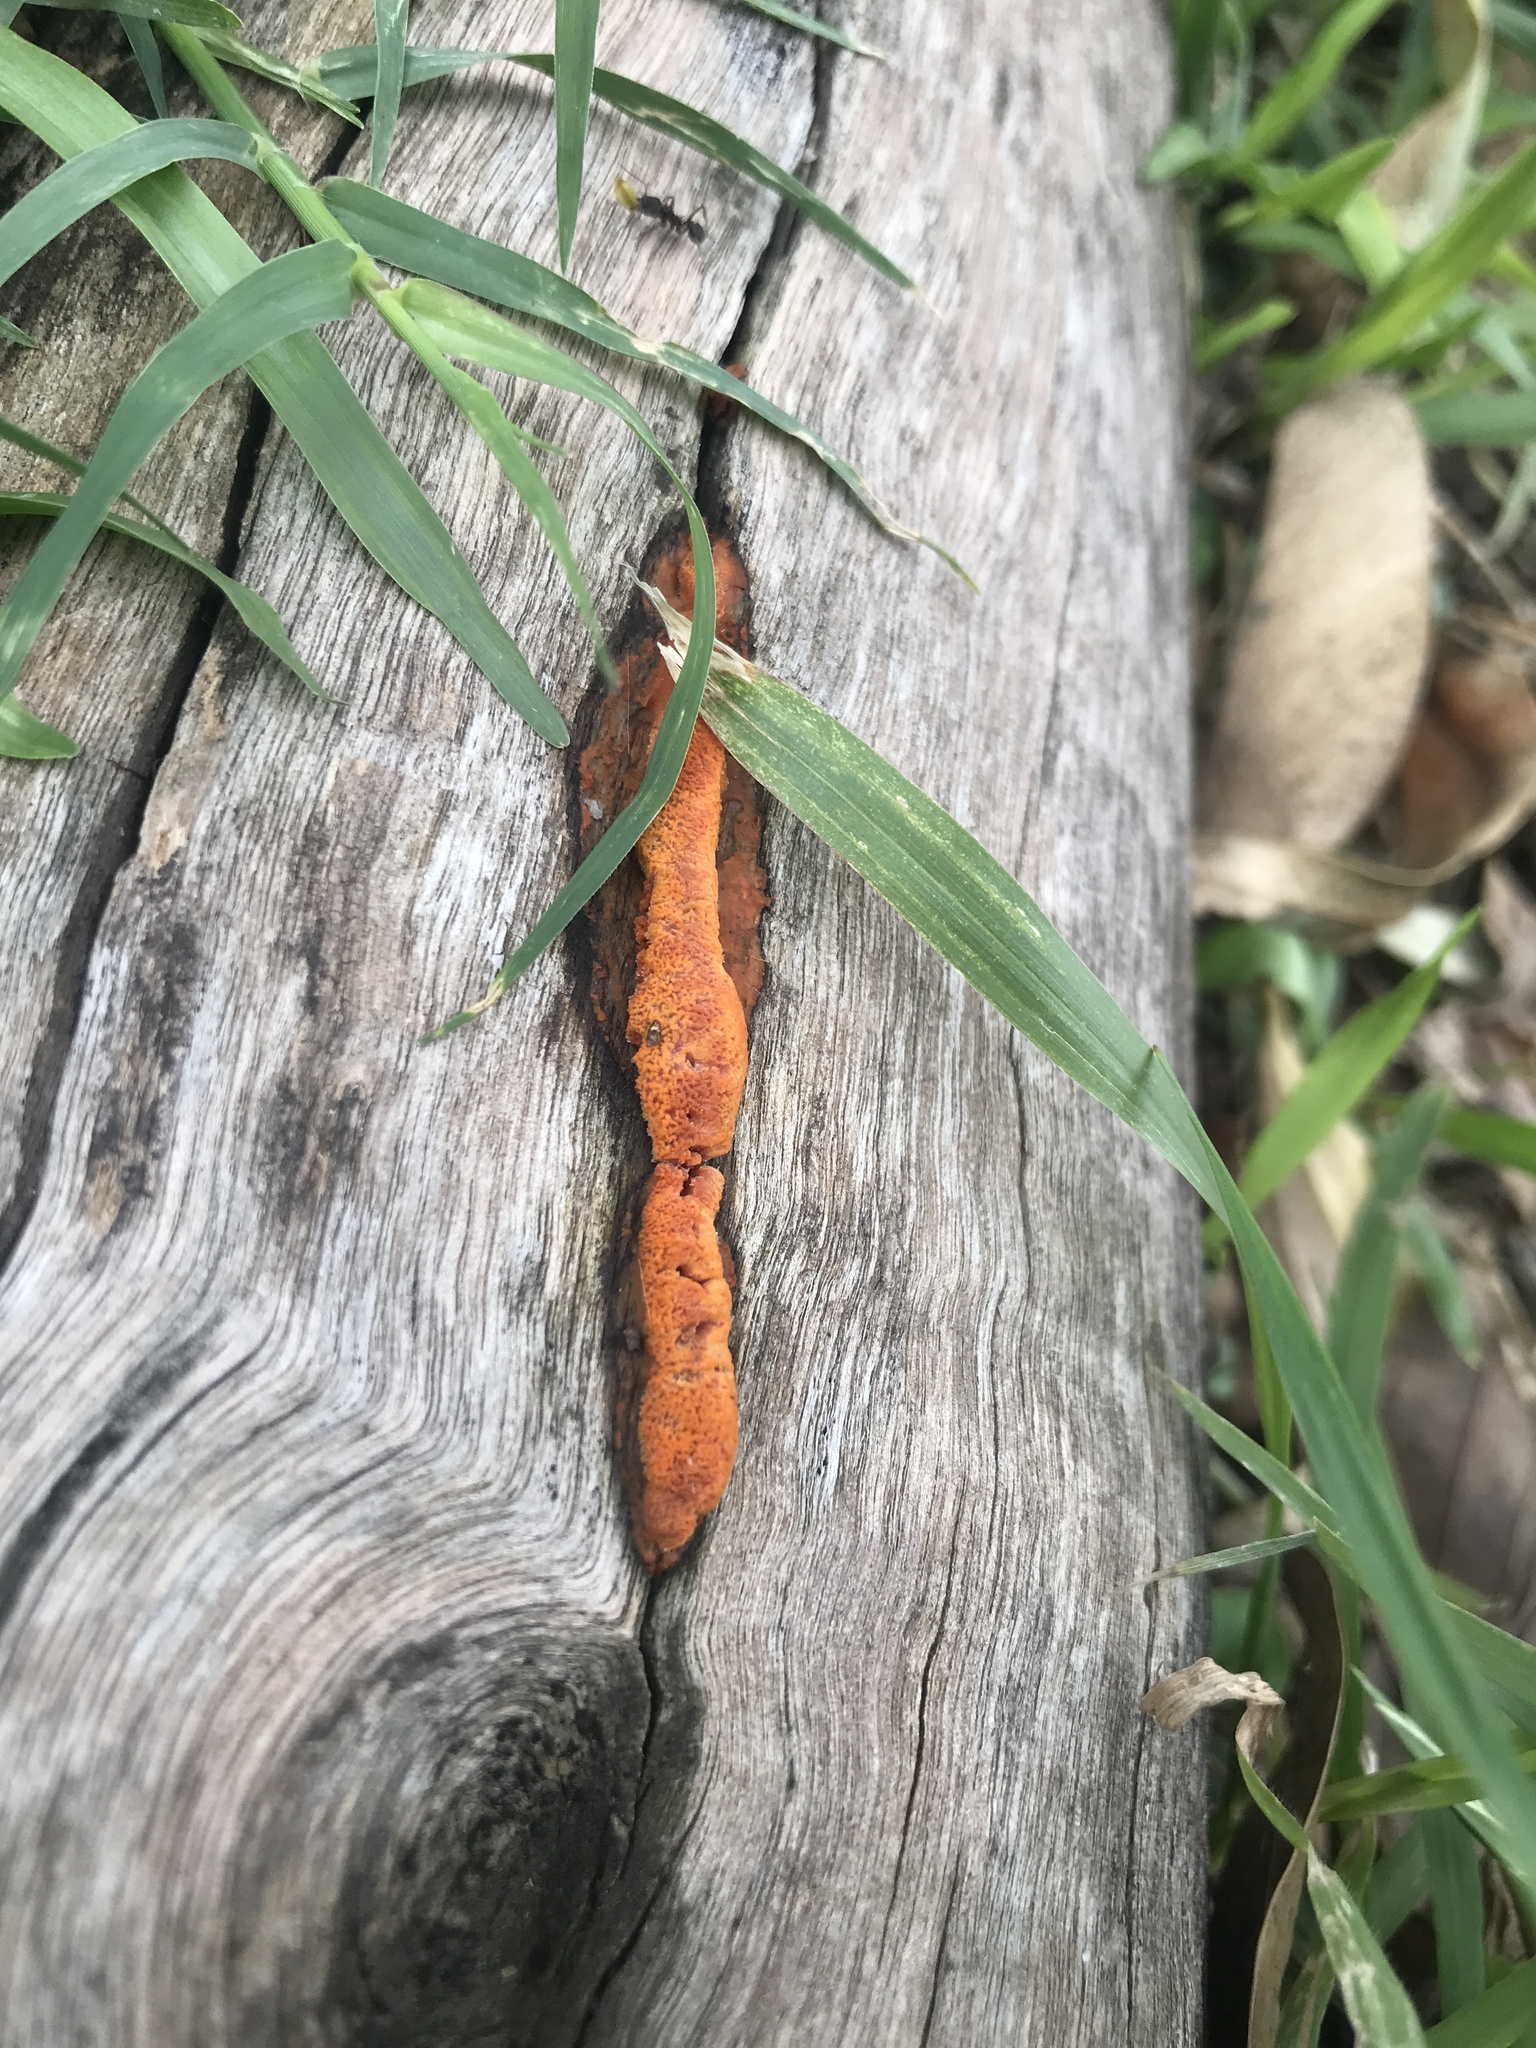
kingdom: Fungi
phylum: Basidiomycota
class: Agaricomycetes
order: Polyporales
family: Polyporaceae
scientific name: Polyporaceae
